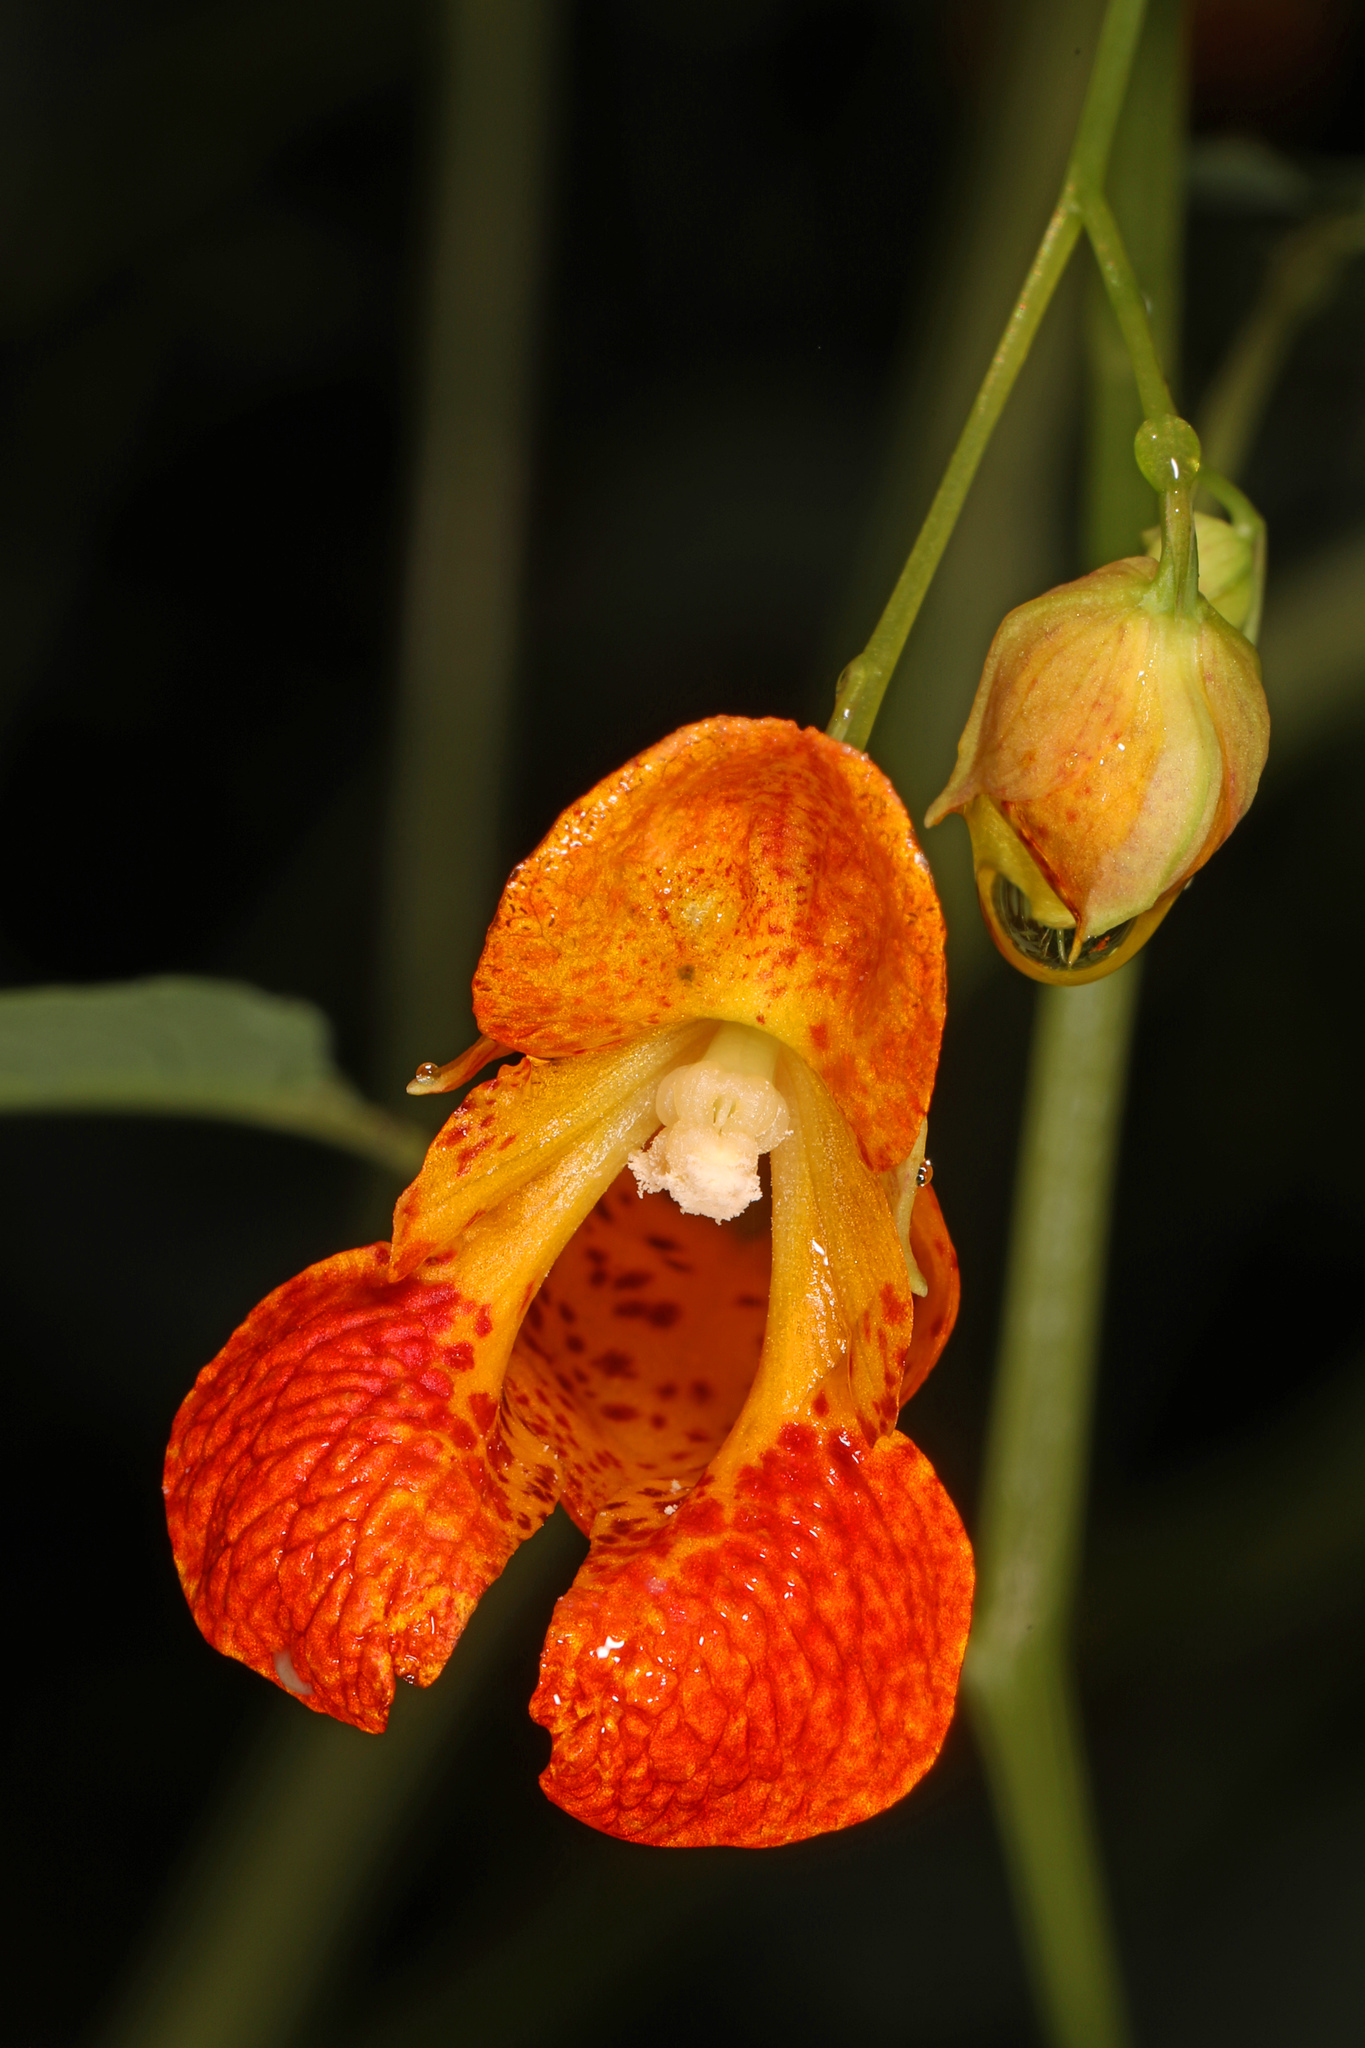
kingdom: Plantae
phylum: Tracheophyta
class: Magnoliopsida
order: Ericales
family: Balsaminaceae
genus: Impatiens
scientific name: Impatiens capensis
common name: Orange balsam
